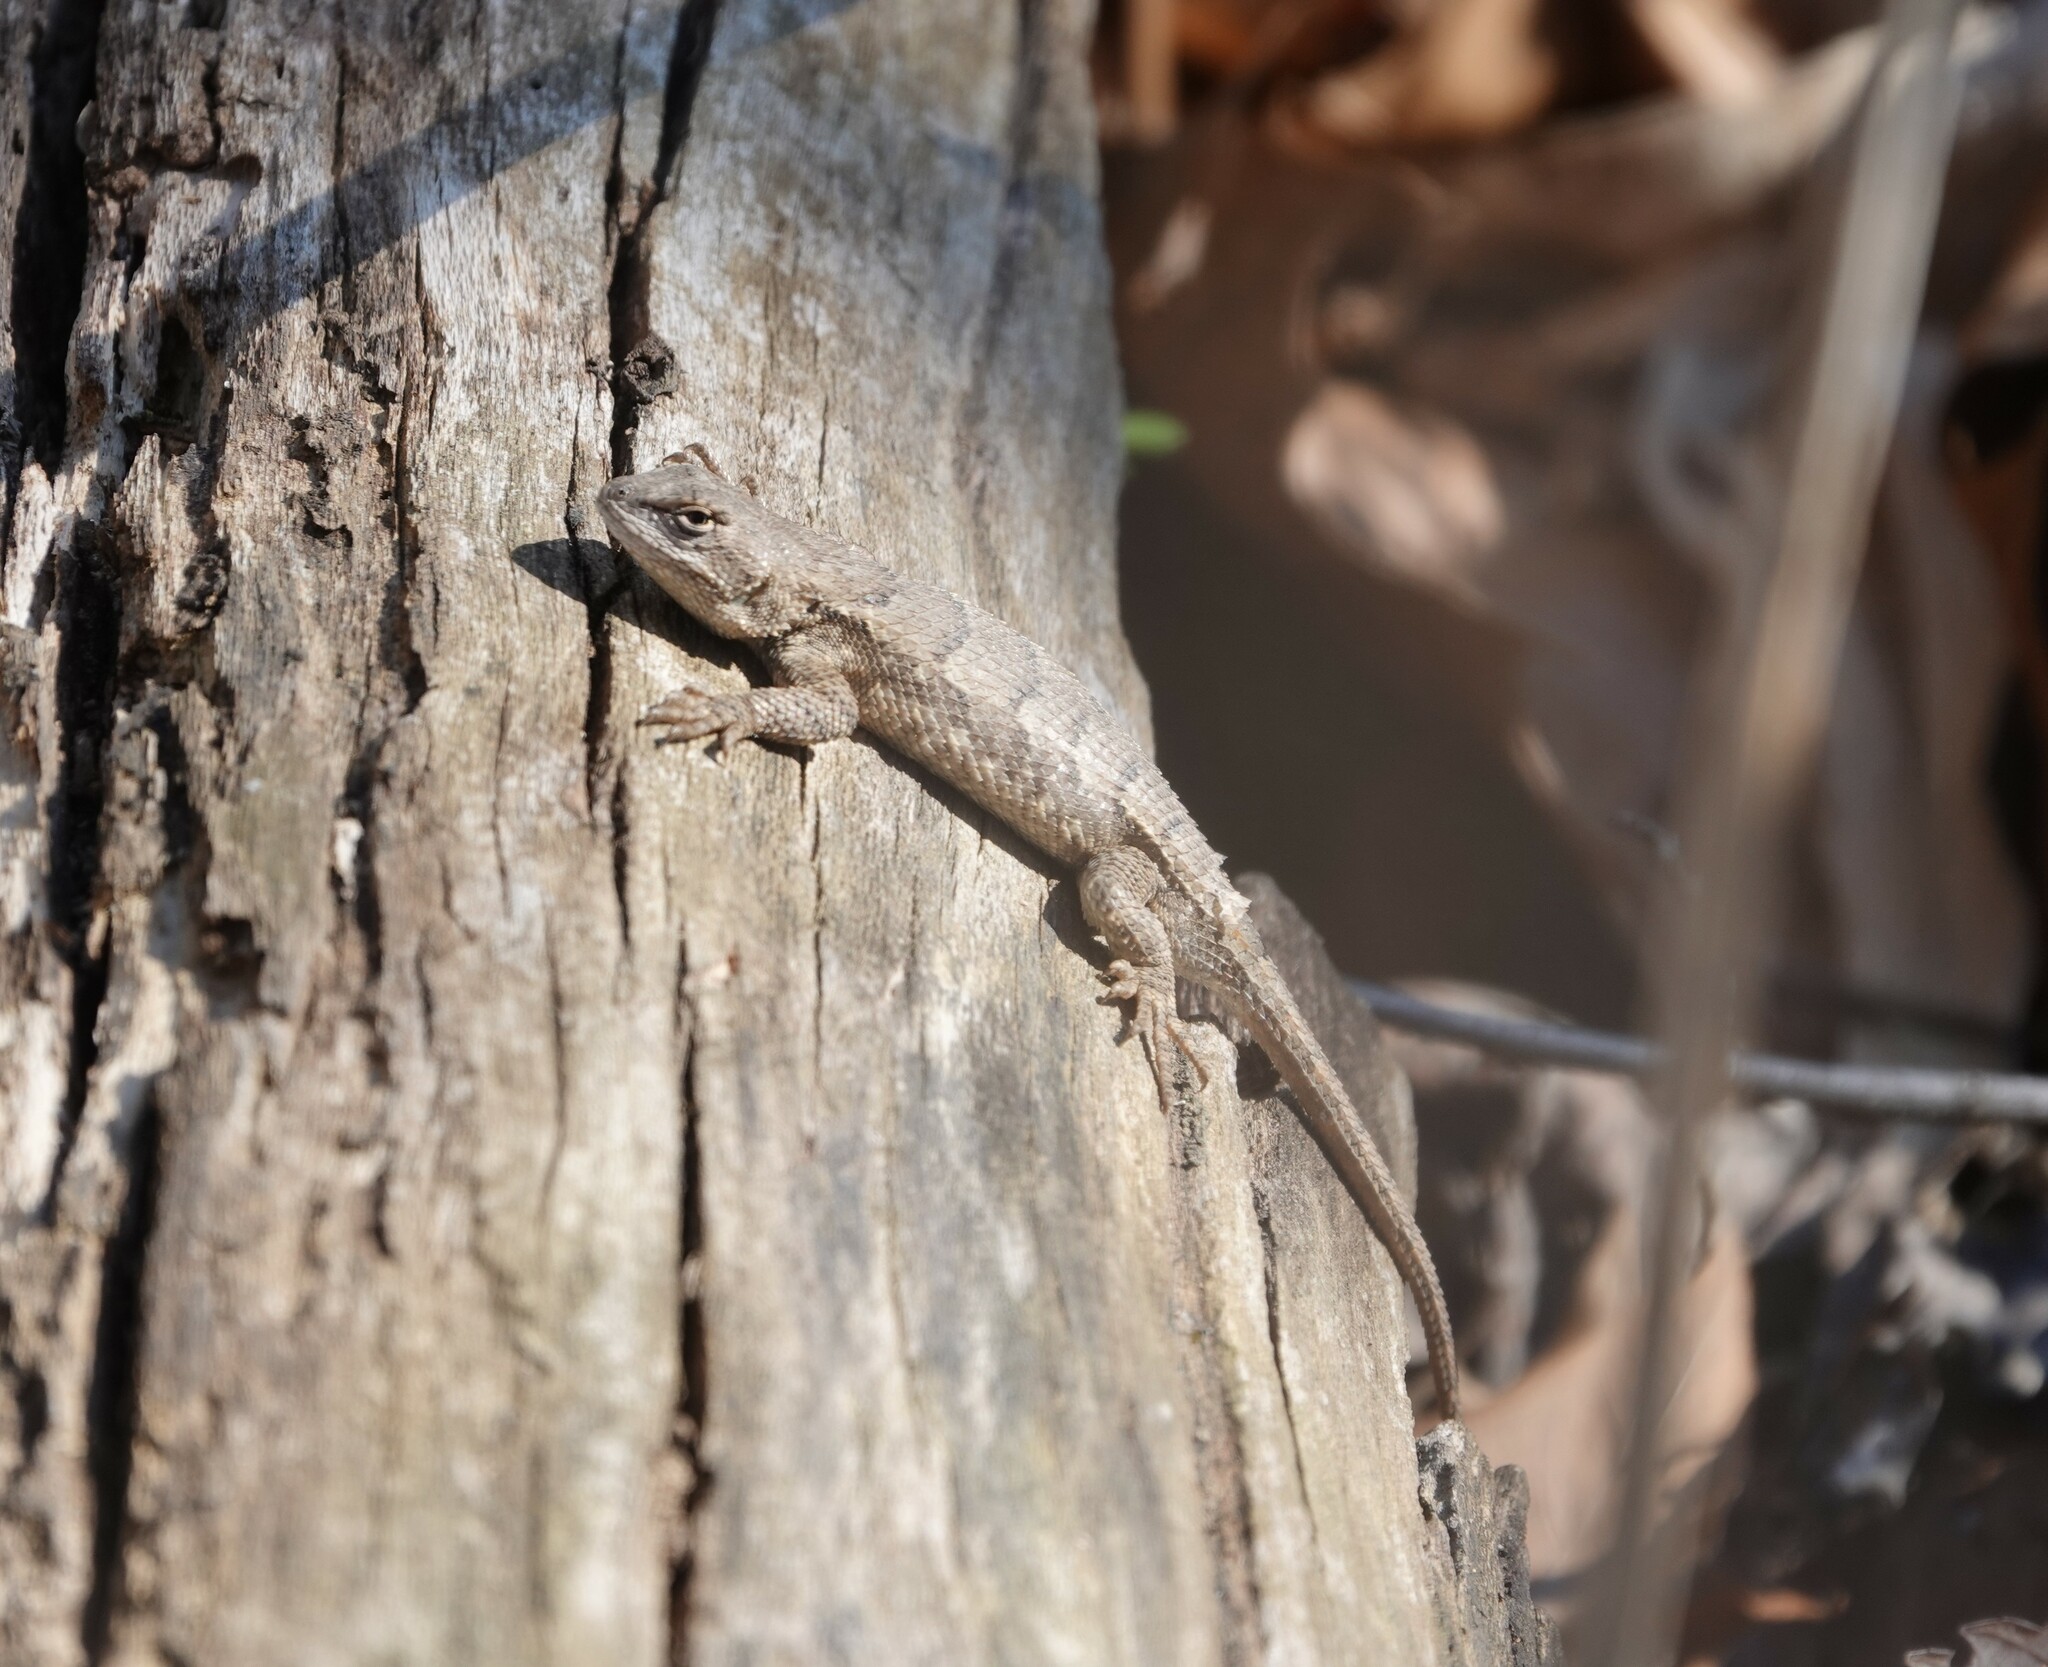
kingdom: Animalia
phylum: Chordata
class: Squamata
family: Phrynosomatidae
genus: Sceloporus
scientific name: Sceloporus consobrinus
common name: Southern prairie lizard
